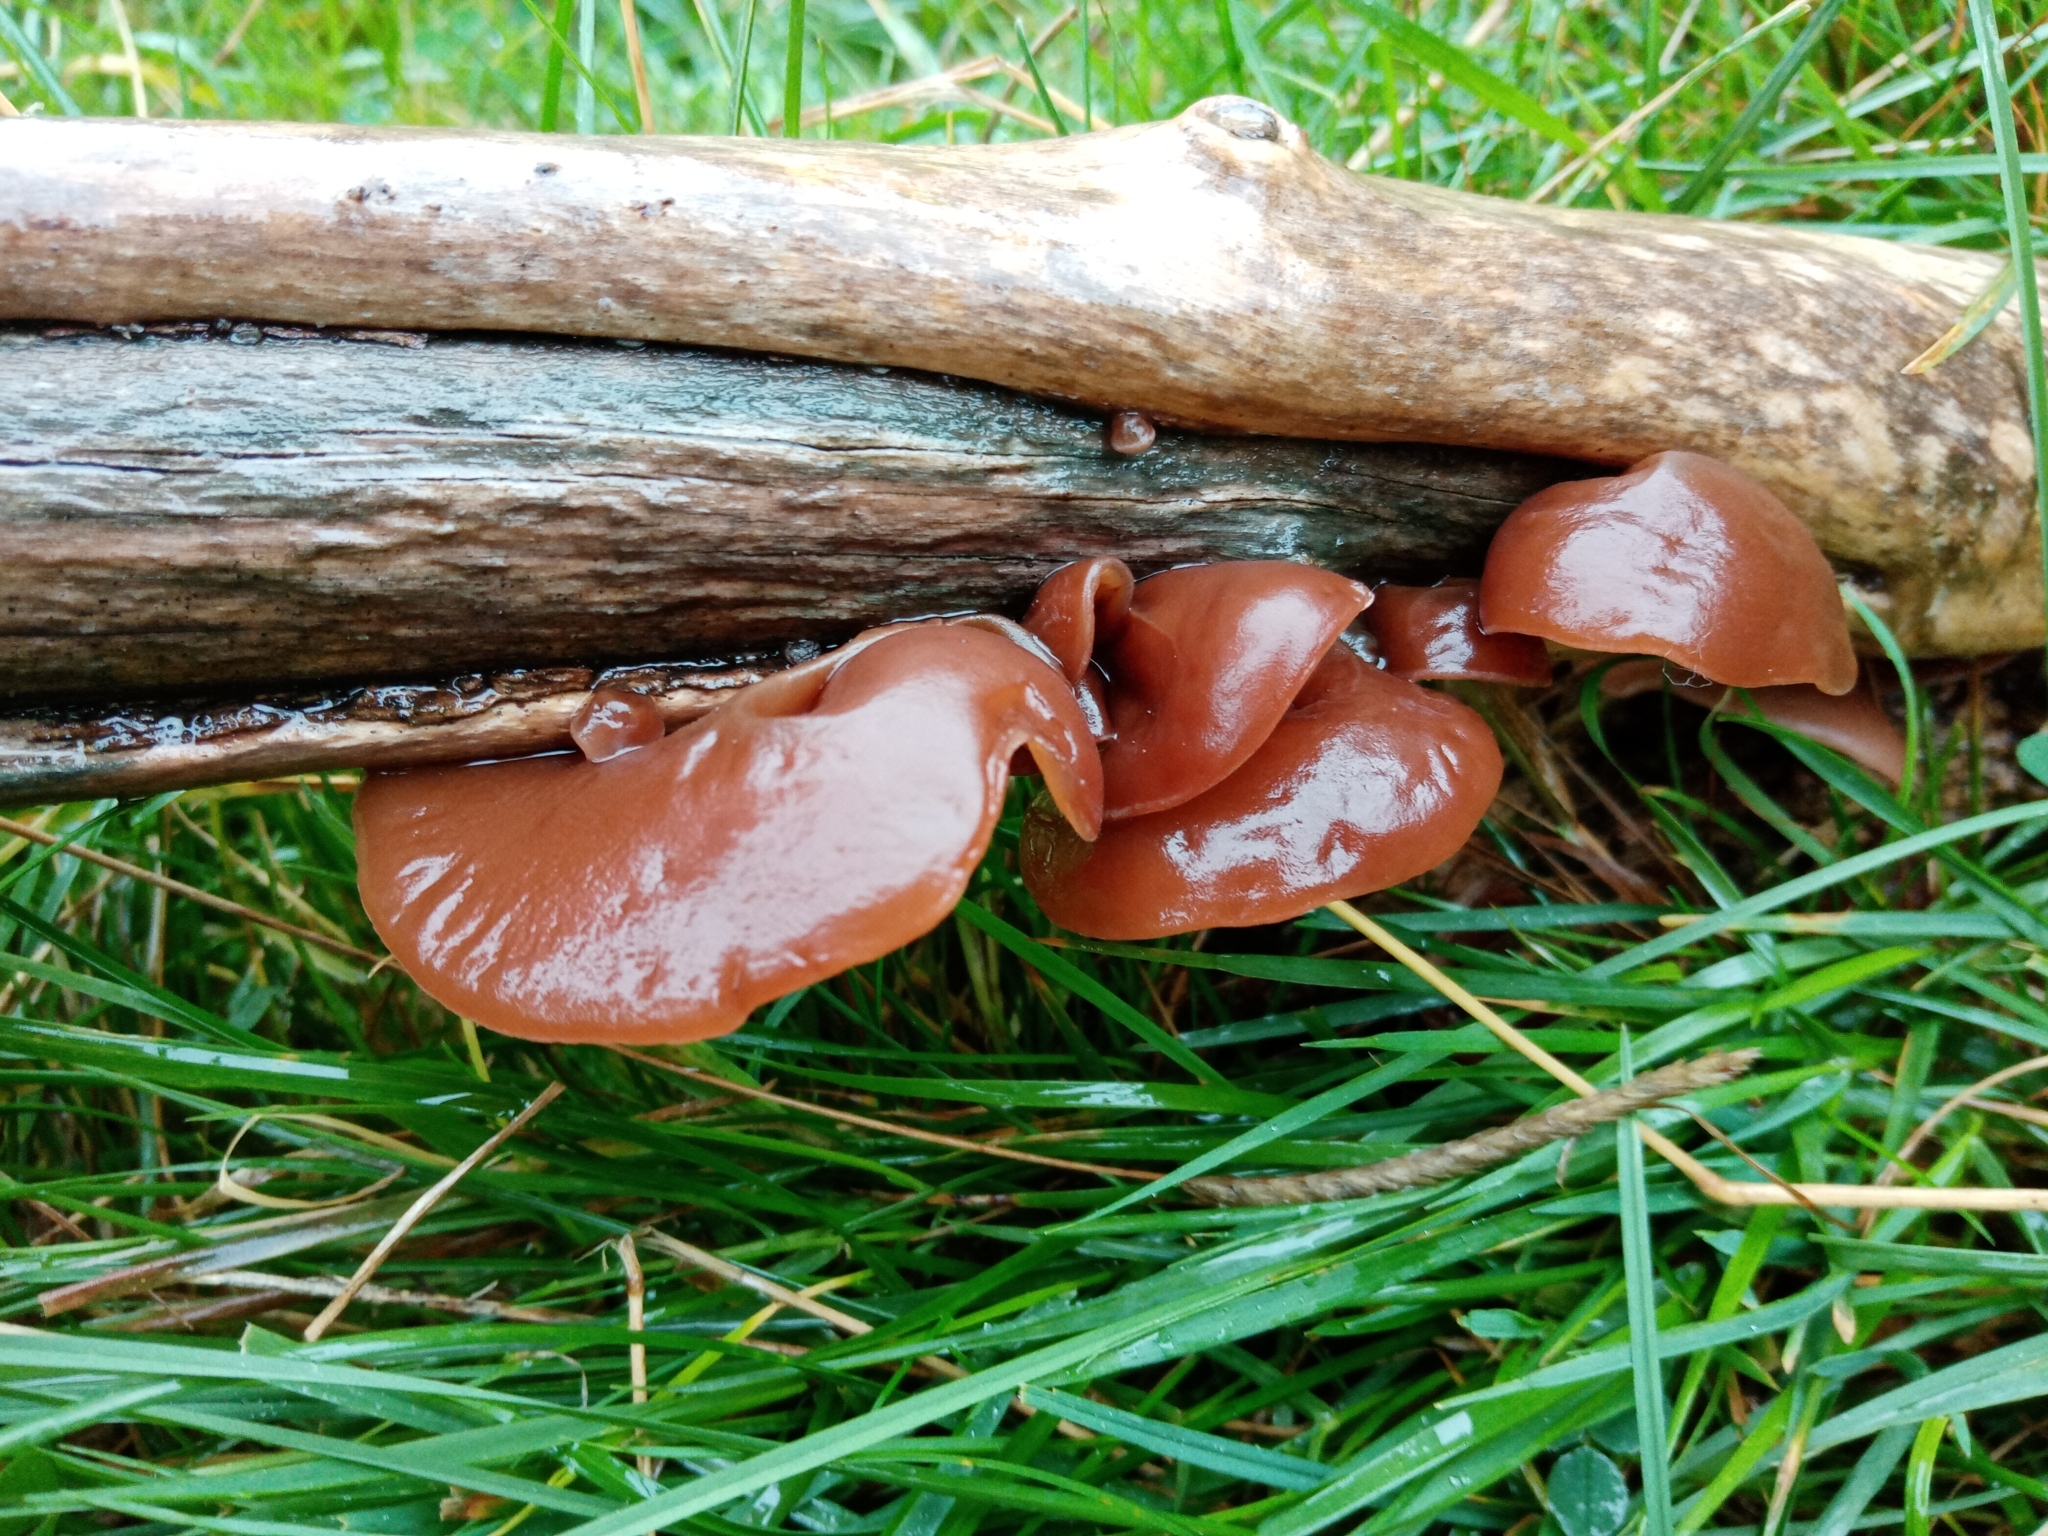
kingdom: Fungi
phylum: Basidiomycota
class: Agaricomycetes
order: Auriculariales
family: Auriculariaceae
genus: Auricularia
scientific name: Auricularia auricula-judae
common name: Jelly ear
